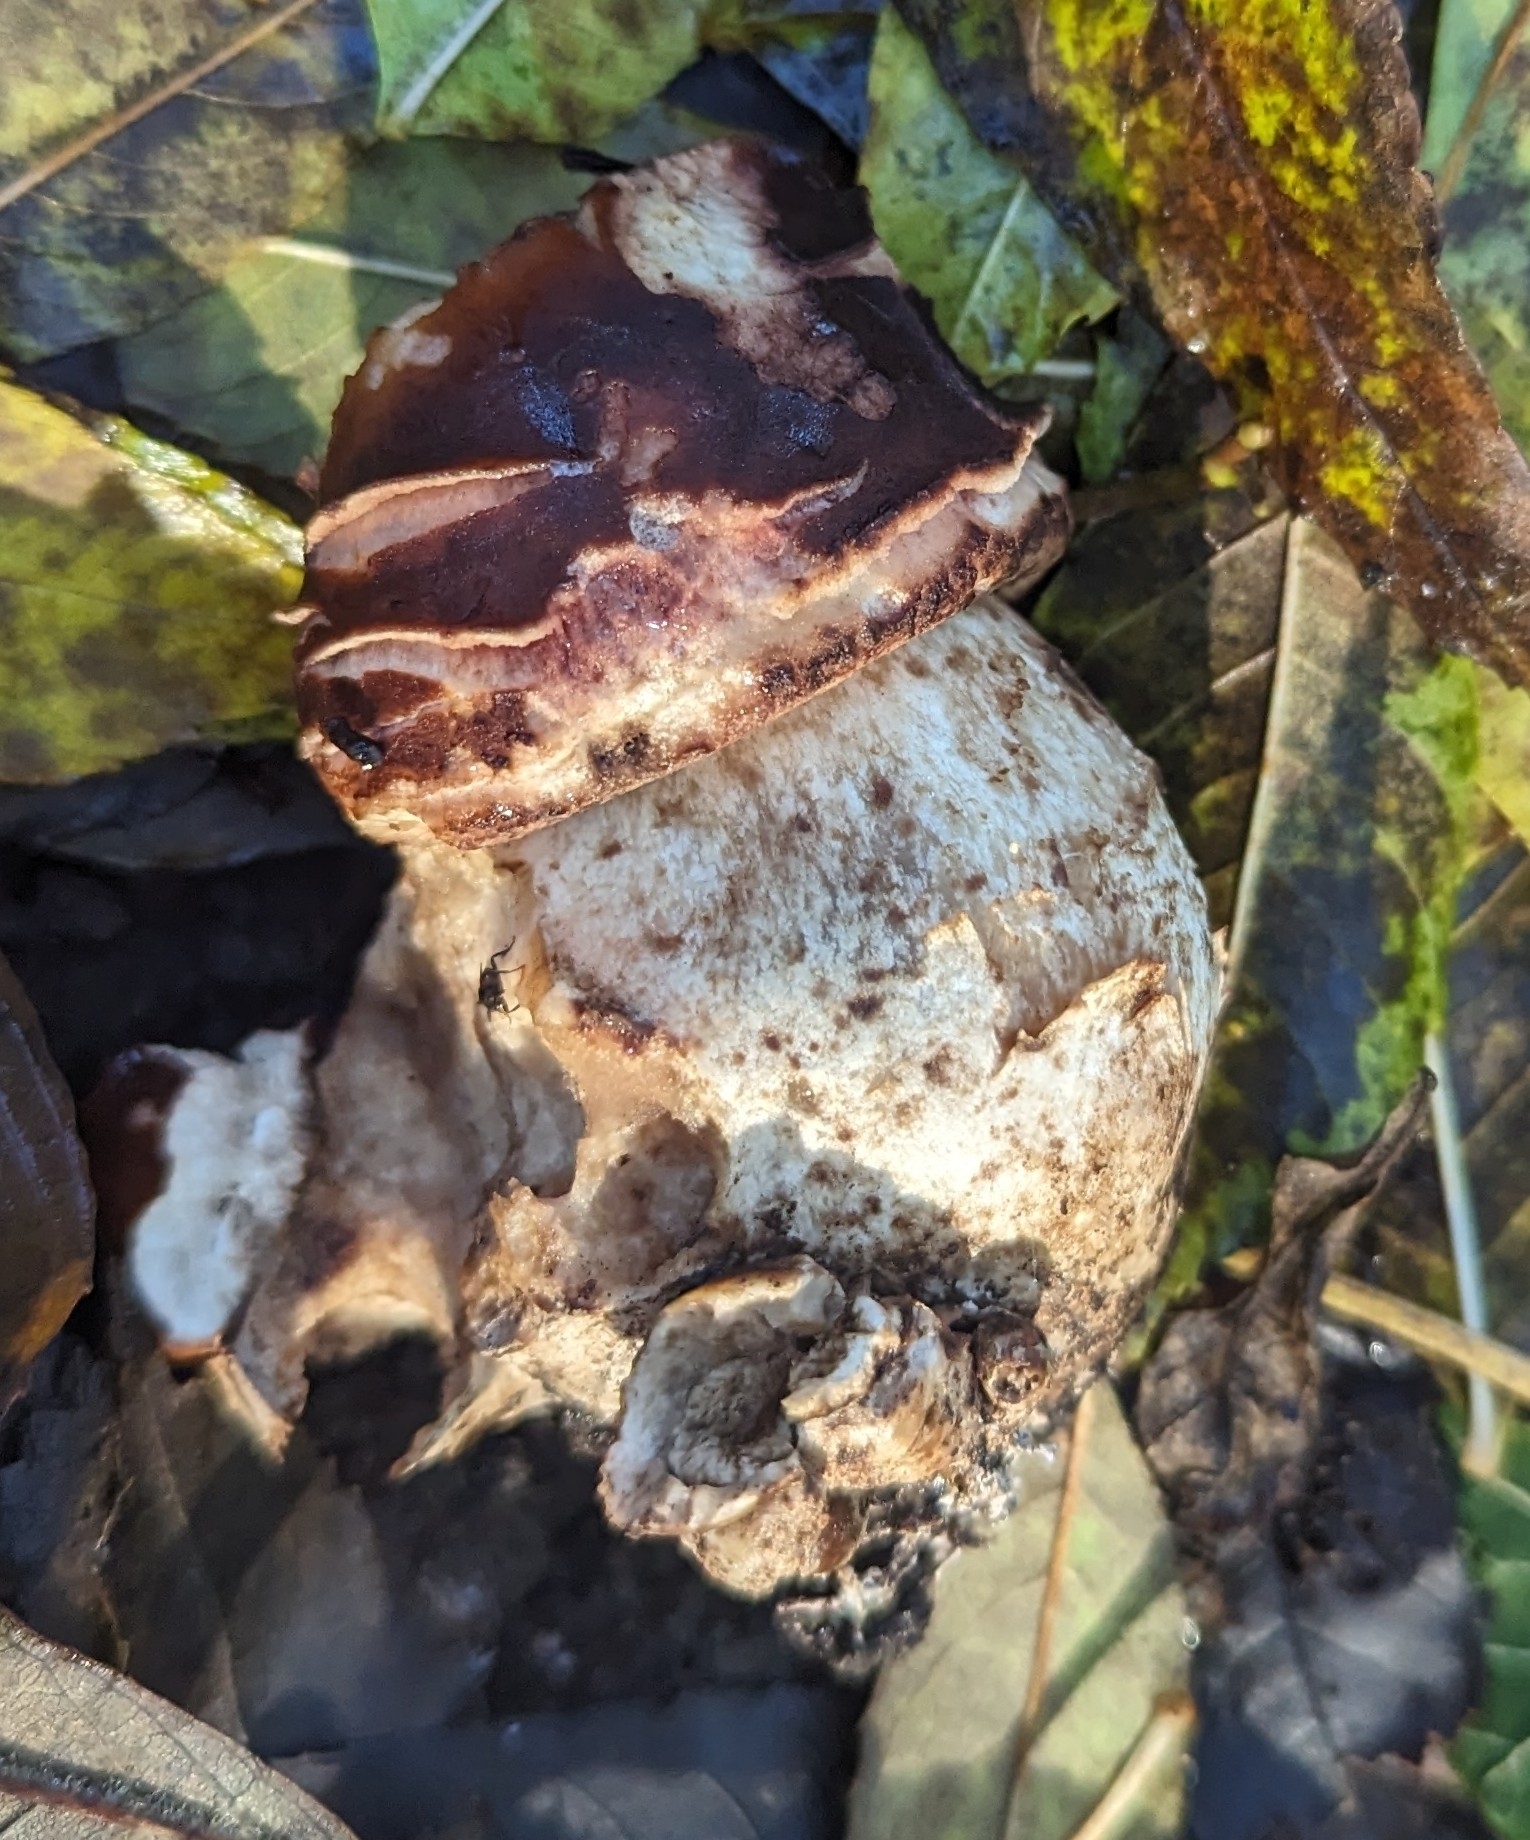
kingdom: Fungi
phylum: Basidiomycota
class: Agaricomycetes
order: Agaricales
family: Agaricaceae
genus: Chlorophyllum
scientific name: Chlorophyllum rhacodes
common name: Shaggy parasol
